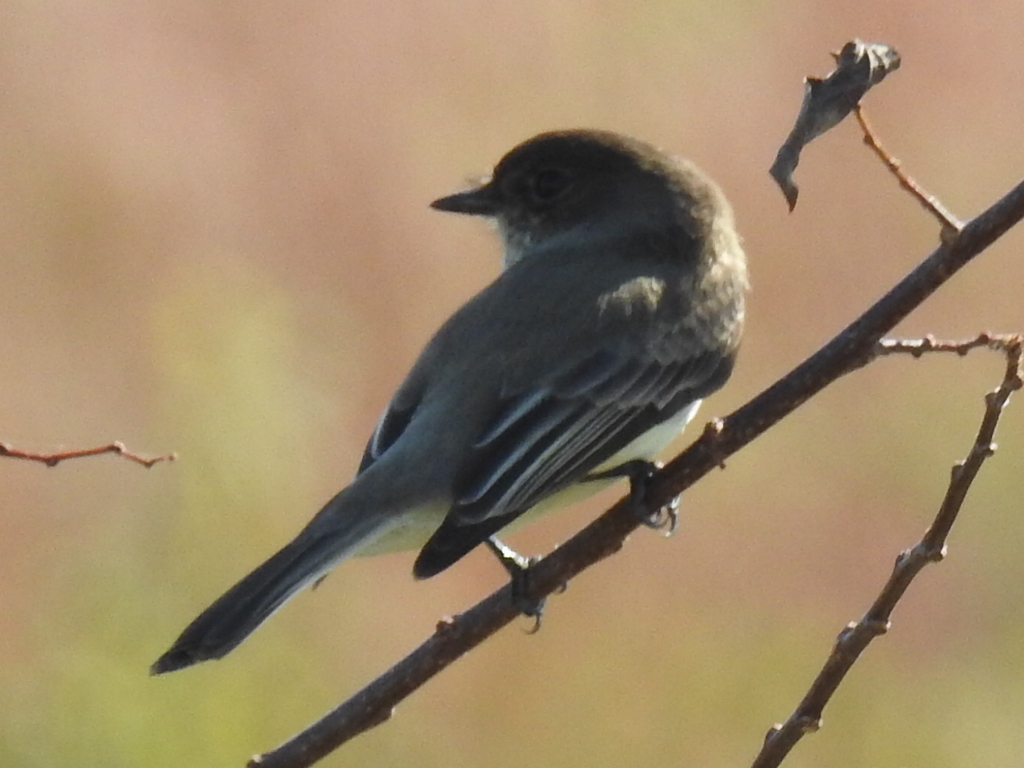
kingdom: Animalia
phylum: Chordata
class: Aves
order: Passeriformes
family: Tyrannidae
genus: Sayornis
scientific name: Sayornis phoebe
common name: Eastern phoebe
